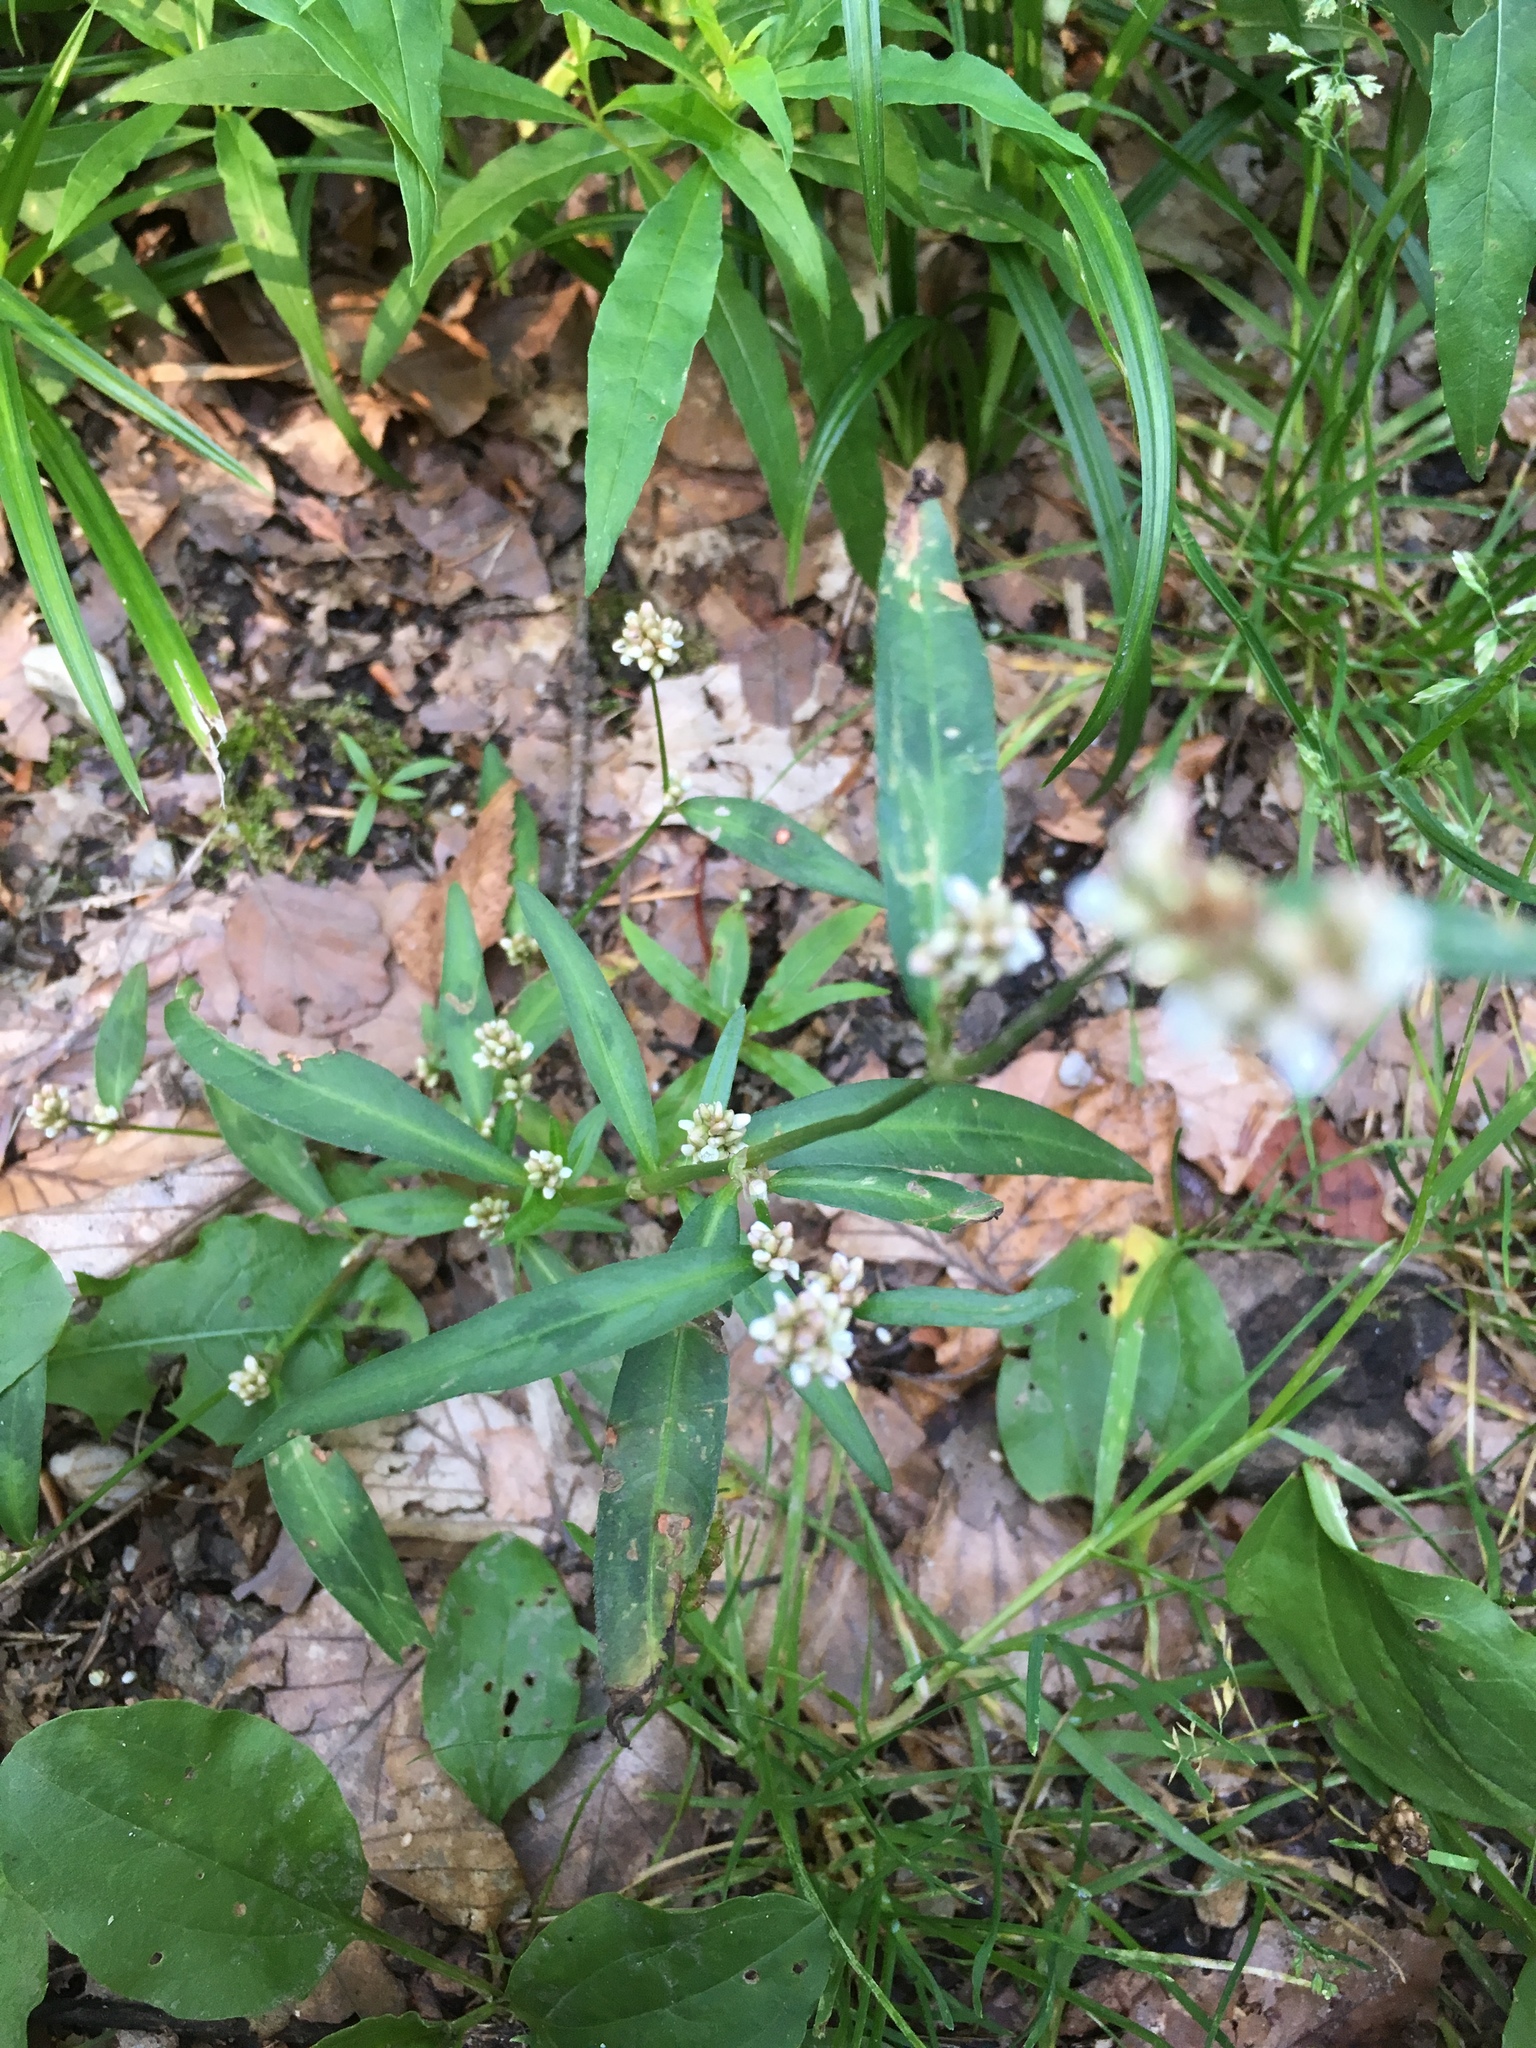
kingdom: Plantae
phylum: Tracheophyta
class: Magnoliopsida
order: Caryophyllales
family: Polygonaceae
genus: Persicaria
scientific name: Persicaria maculosa
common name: Redshank
